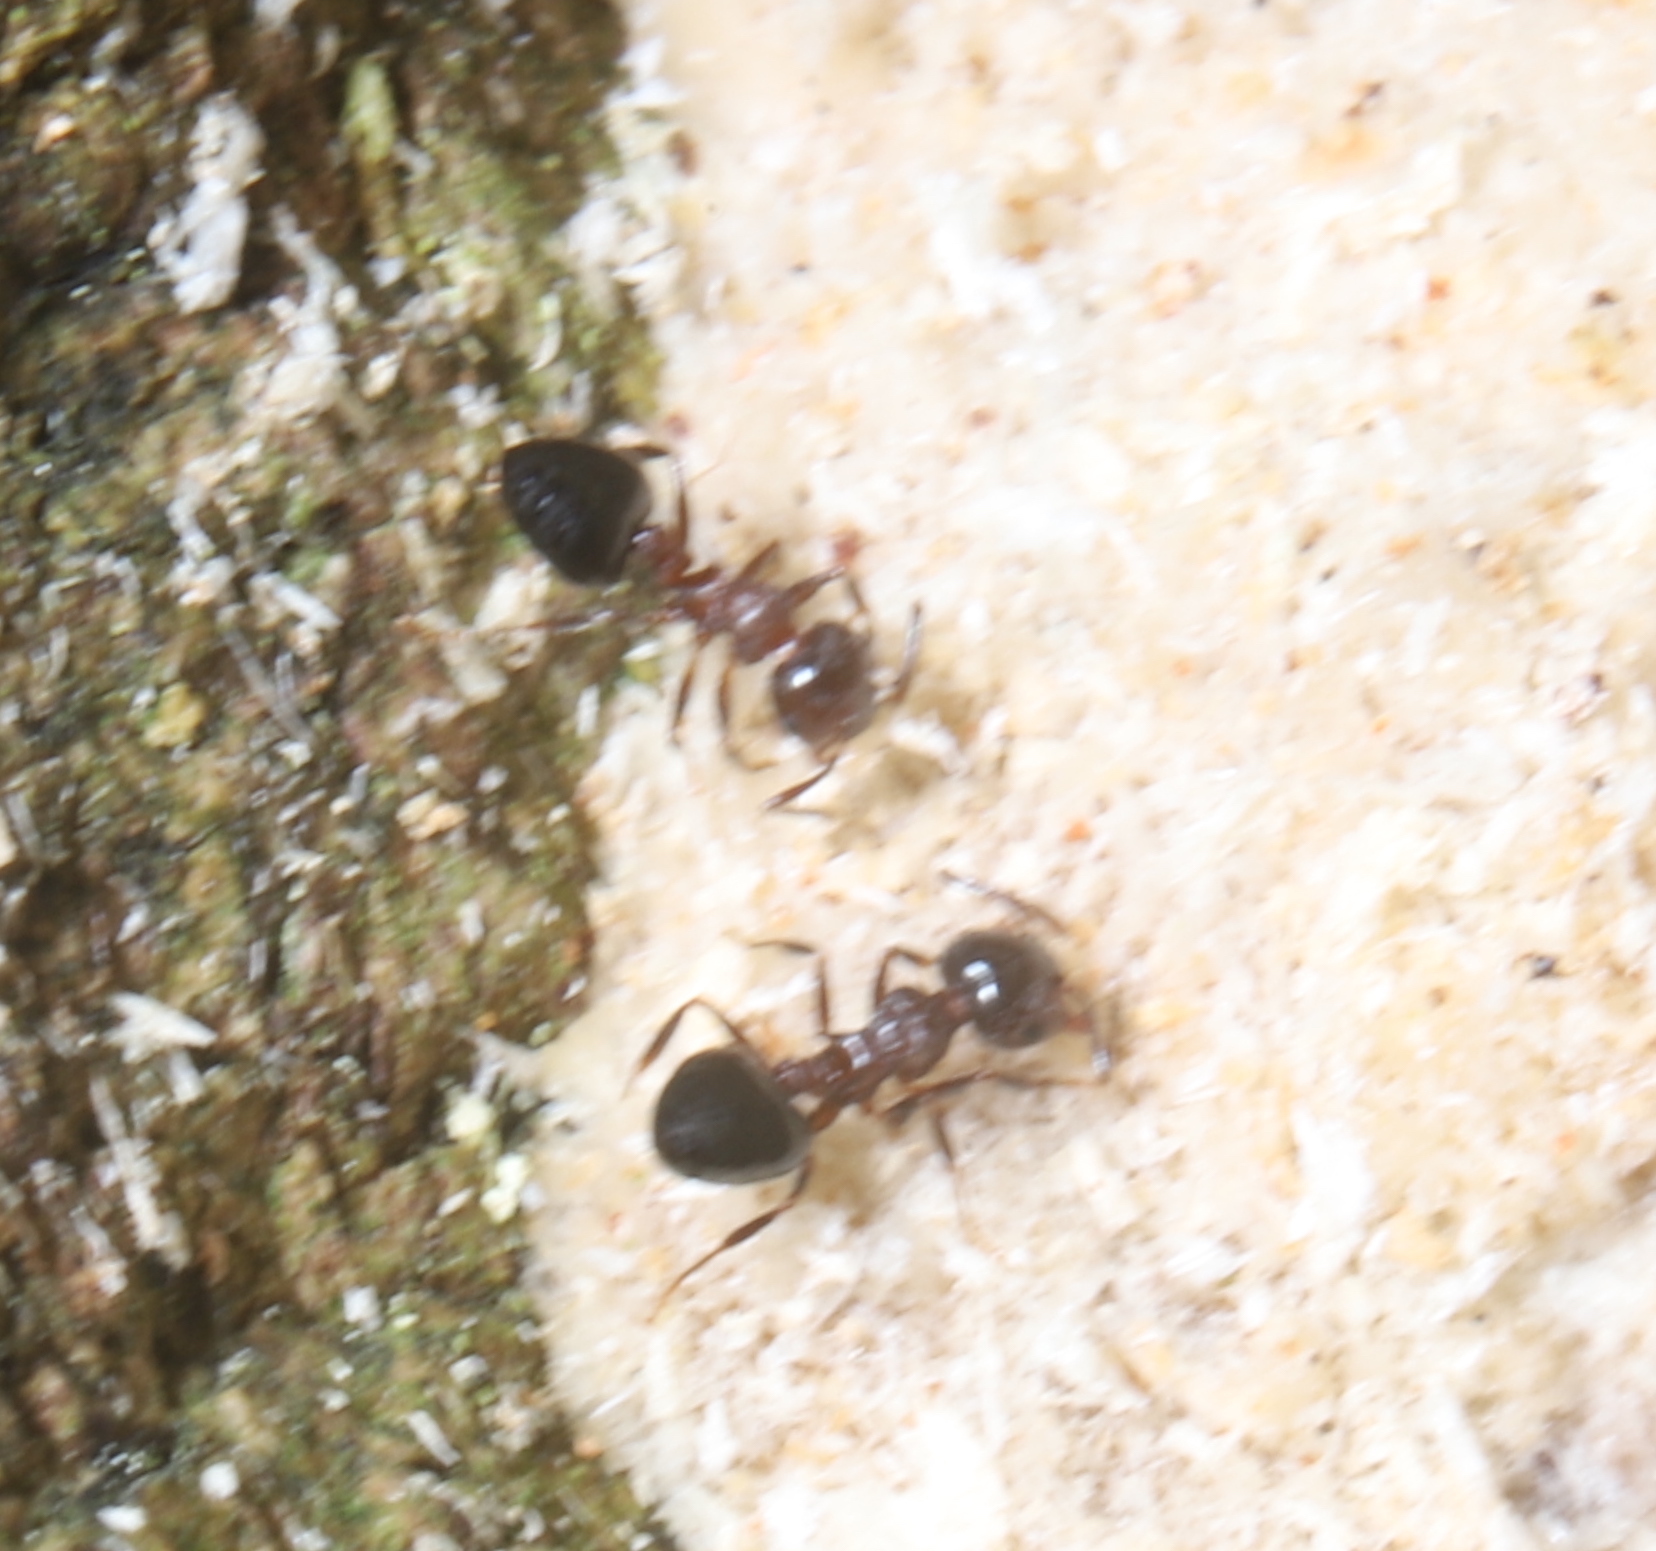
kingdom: Animalia
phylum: Arthropoda
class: Insecta
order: Hymenoptera
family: Formicidae
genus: Crematogaster
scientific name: Crematogaster
